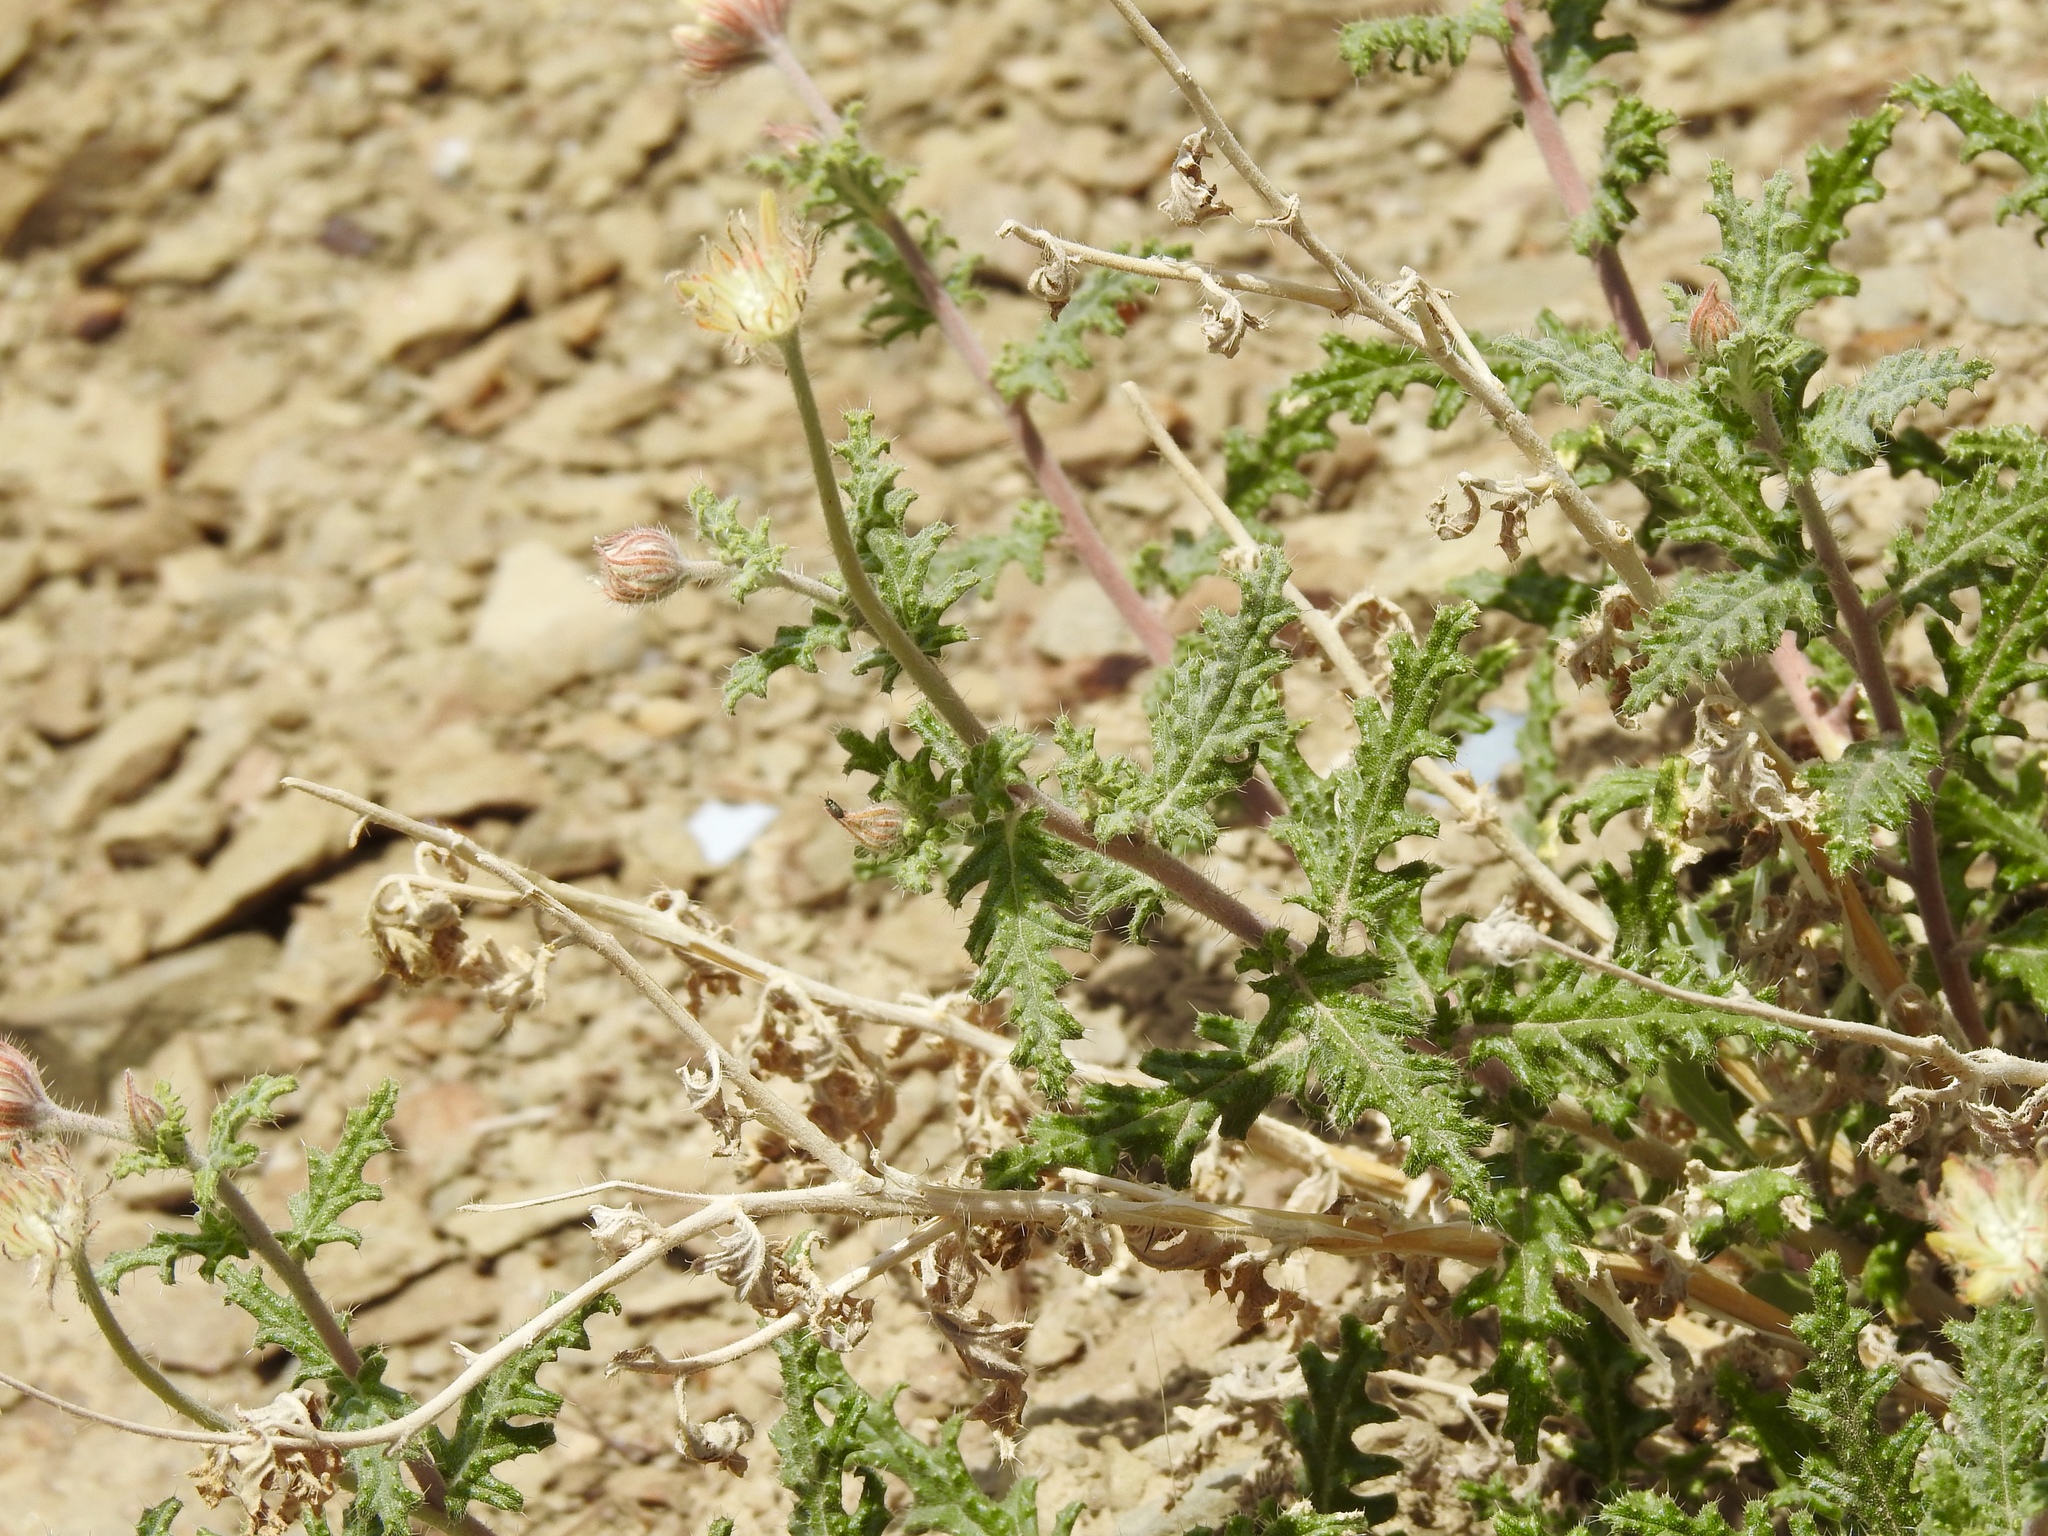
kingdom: Plantae
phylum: Tracheophyta
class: Magnoliopsida
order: Cornales
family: Loasaceae
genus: Cevallia
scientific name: Cevallia sinuata
